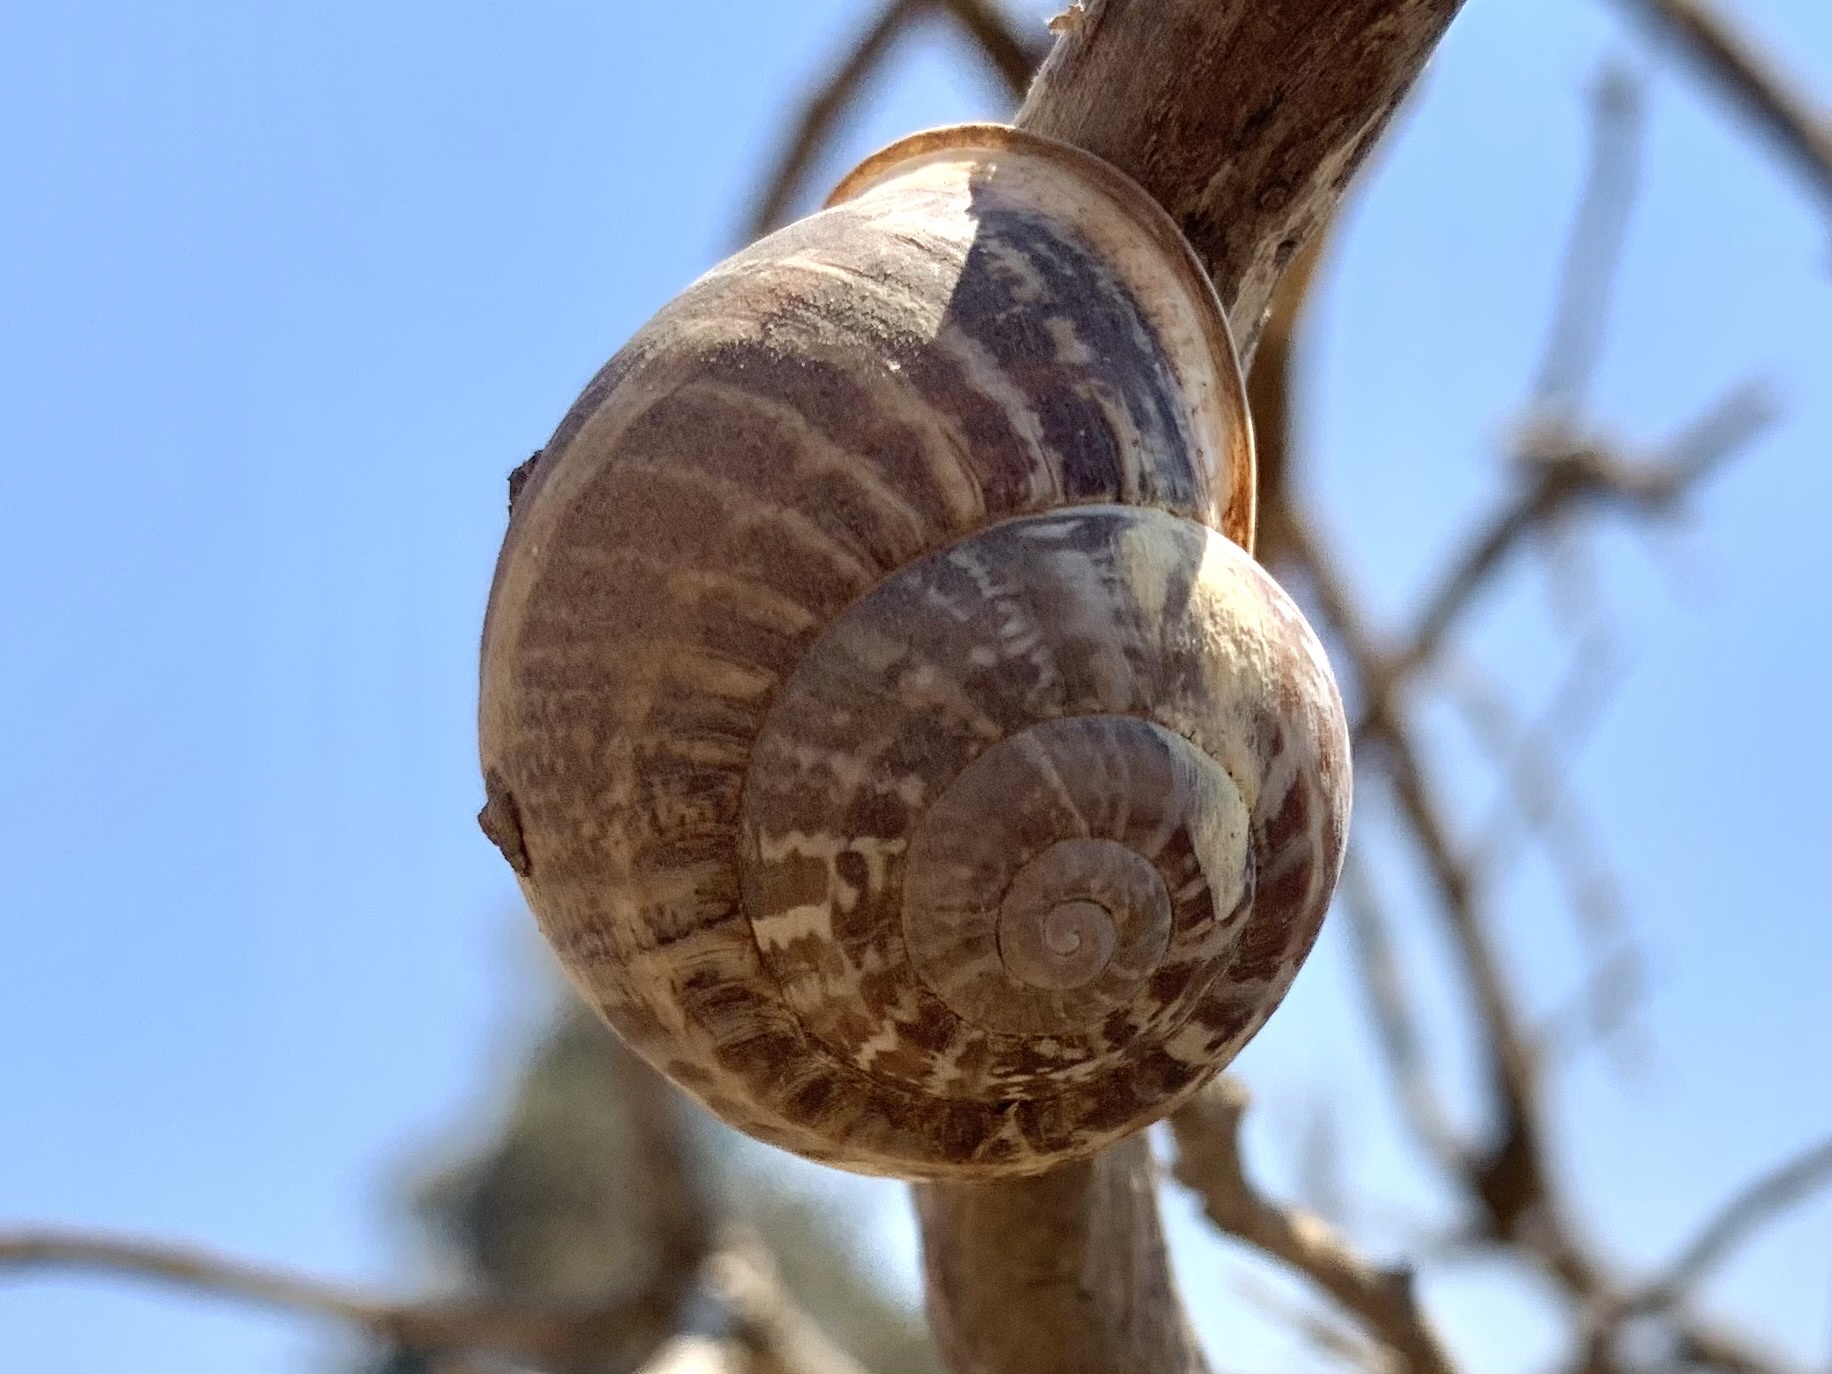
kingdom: Animalia
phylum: Mollusca
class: Gastropoda
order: Stylommatophora
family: Helicidae
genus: Eobania
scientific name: Eobania vermiculata
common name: Chocolateband snail
